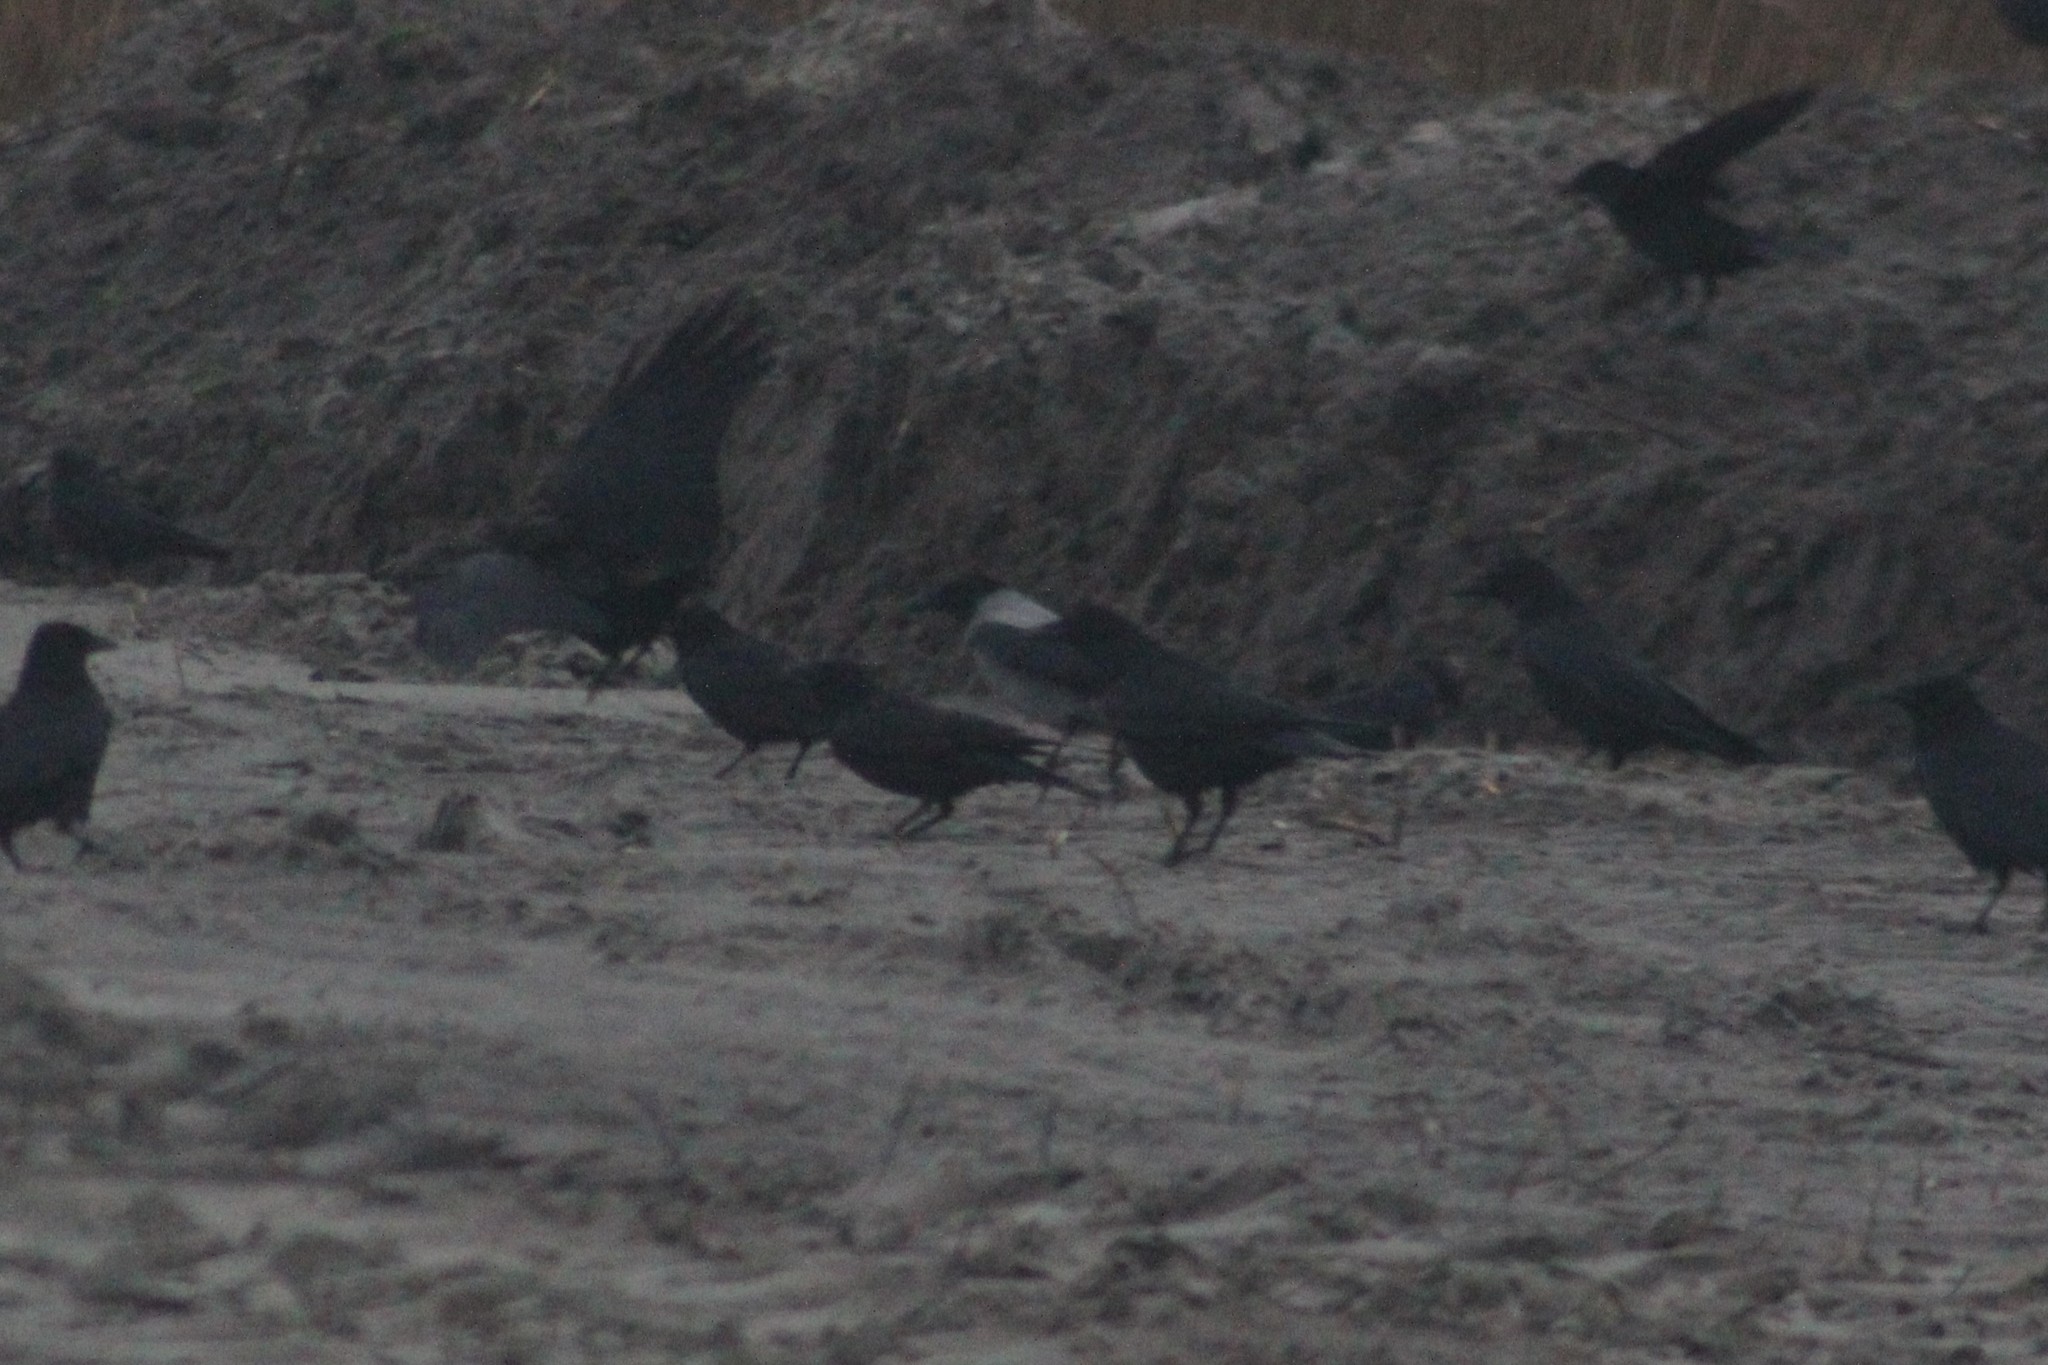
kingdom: Animalia
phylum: Chordata
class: Aves
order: Passeriformes
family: Corvidae
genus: Corvus
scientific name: Corvus cornix
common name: Hooded crow
